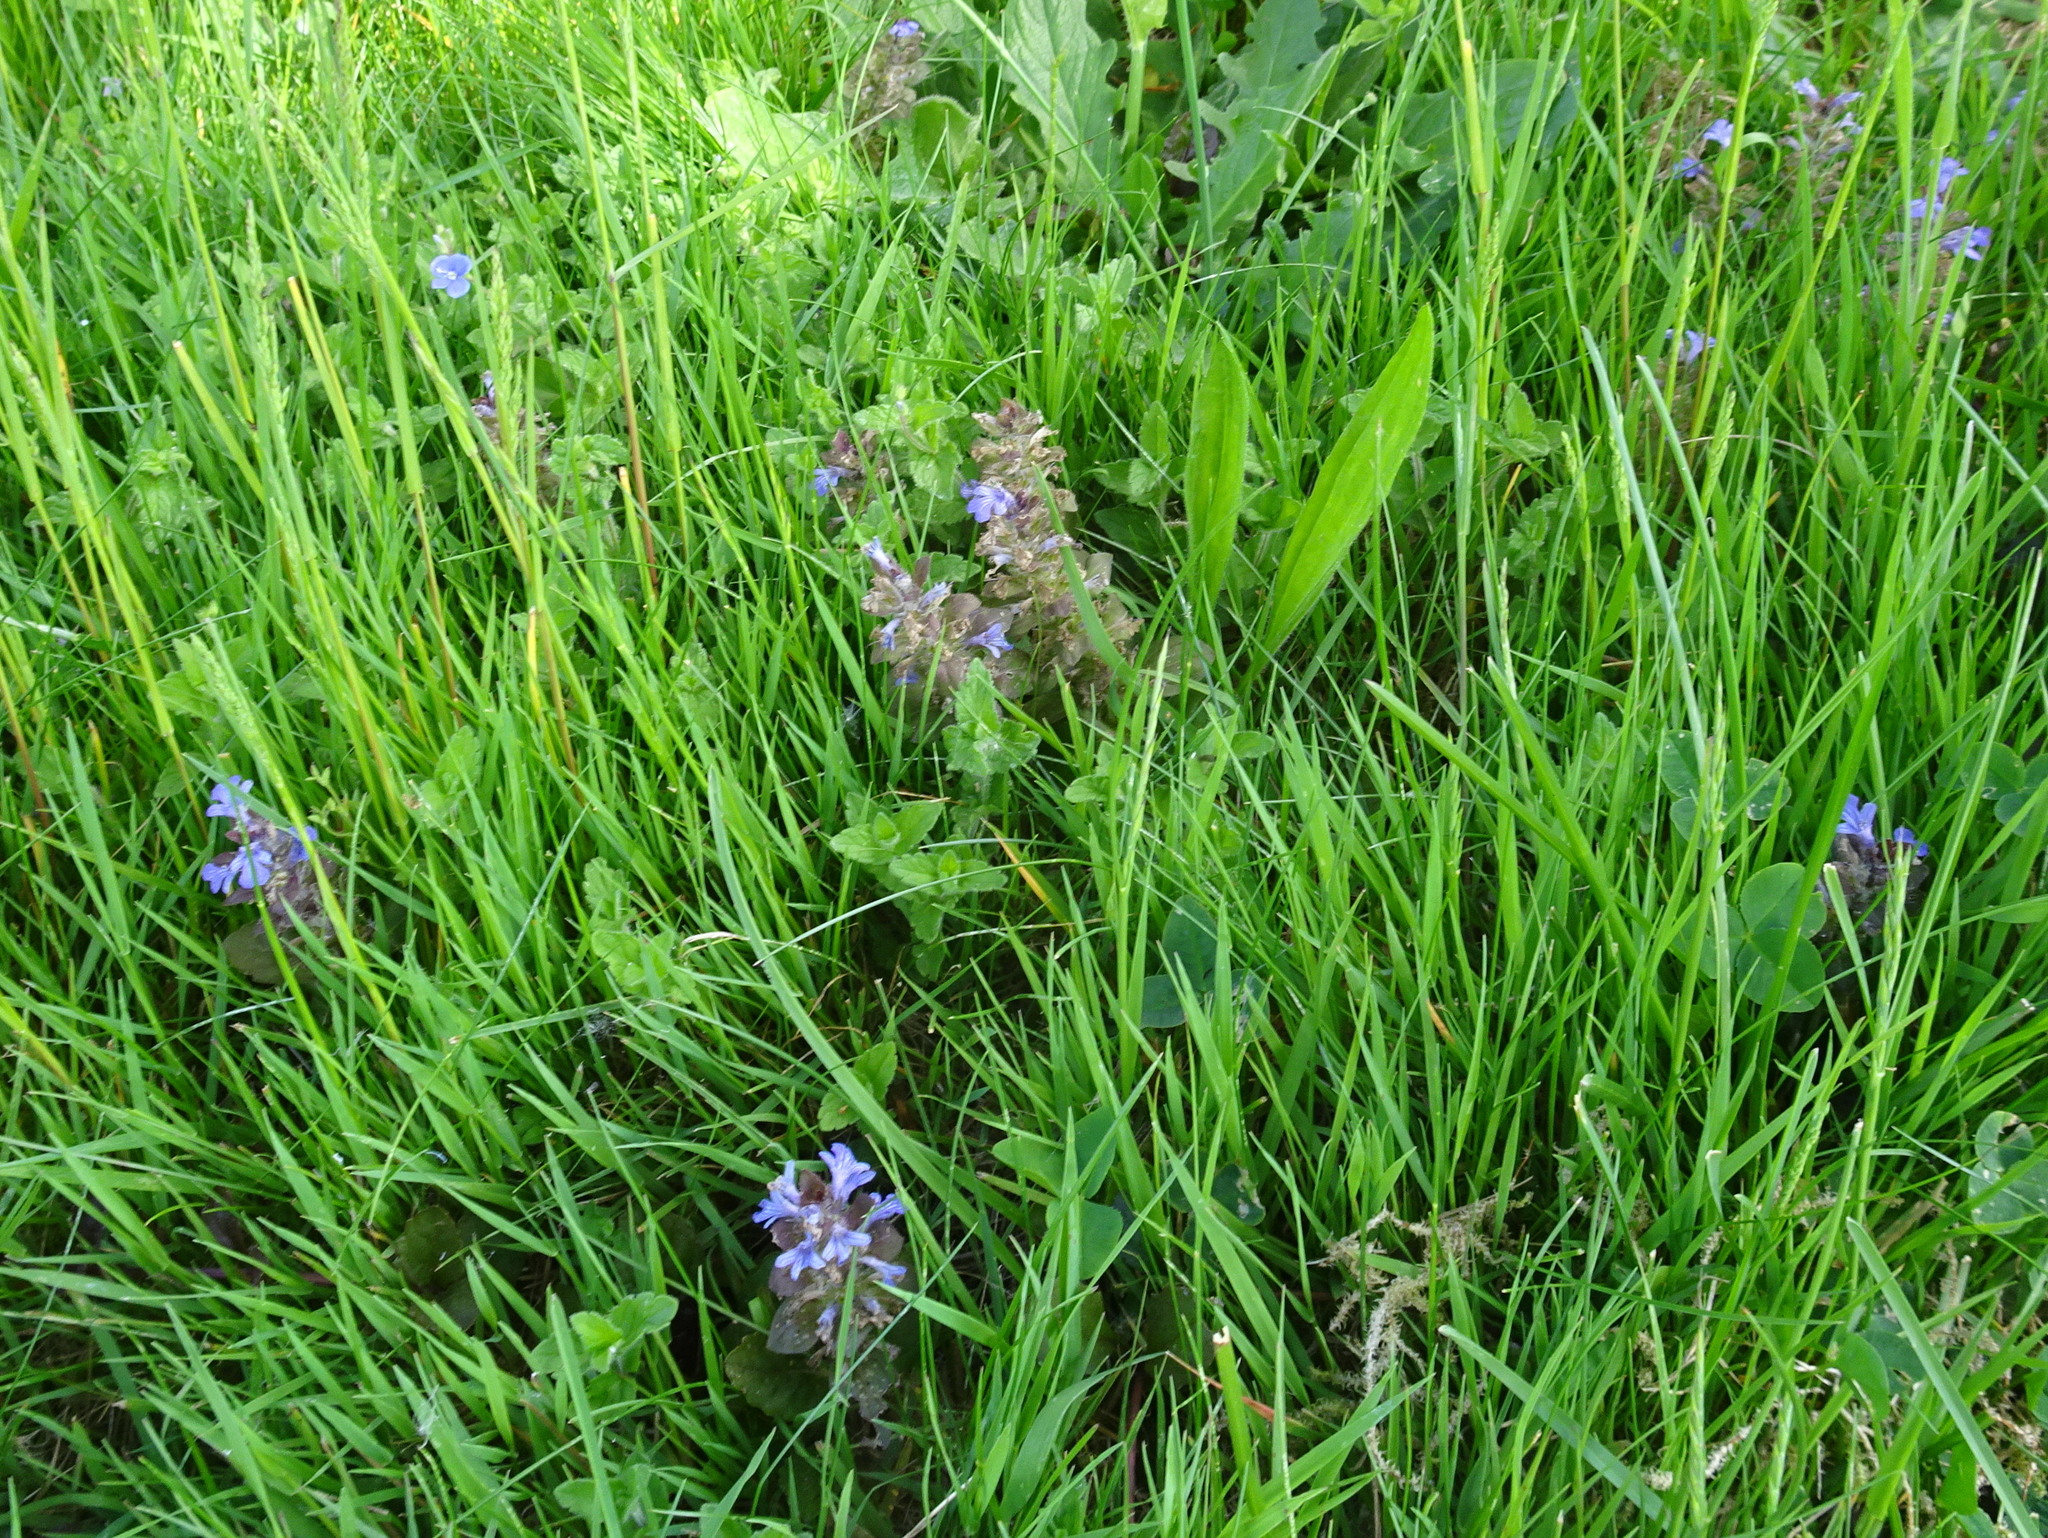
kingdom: Plantae
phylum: Tracheophyta
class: Magnoliopsida
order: Lamiales
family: Lamiaceae
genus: Ajuga
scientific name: Ajuga reptans
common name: Bugle
